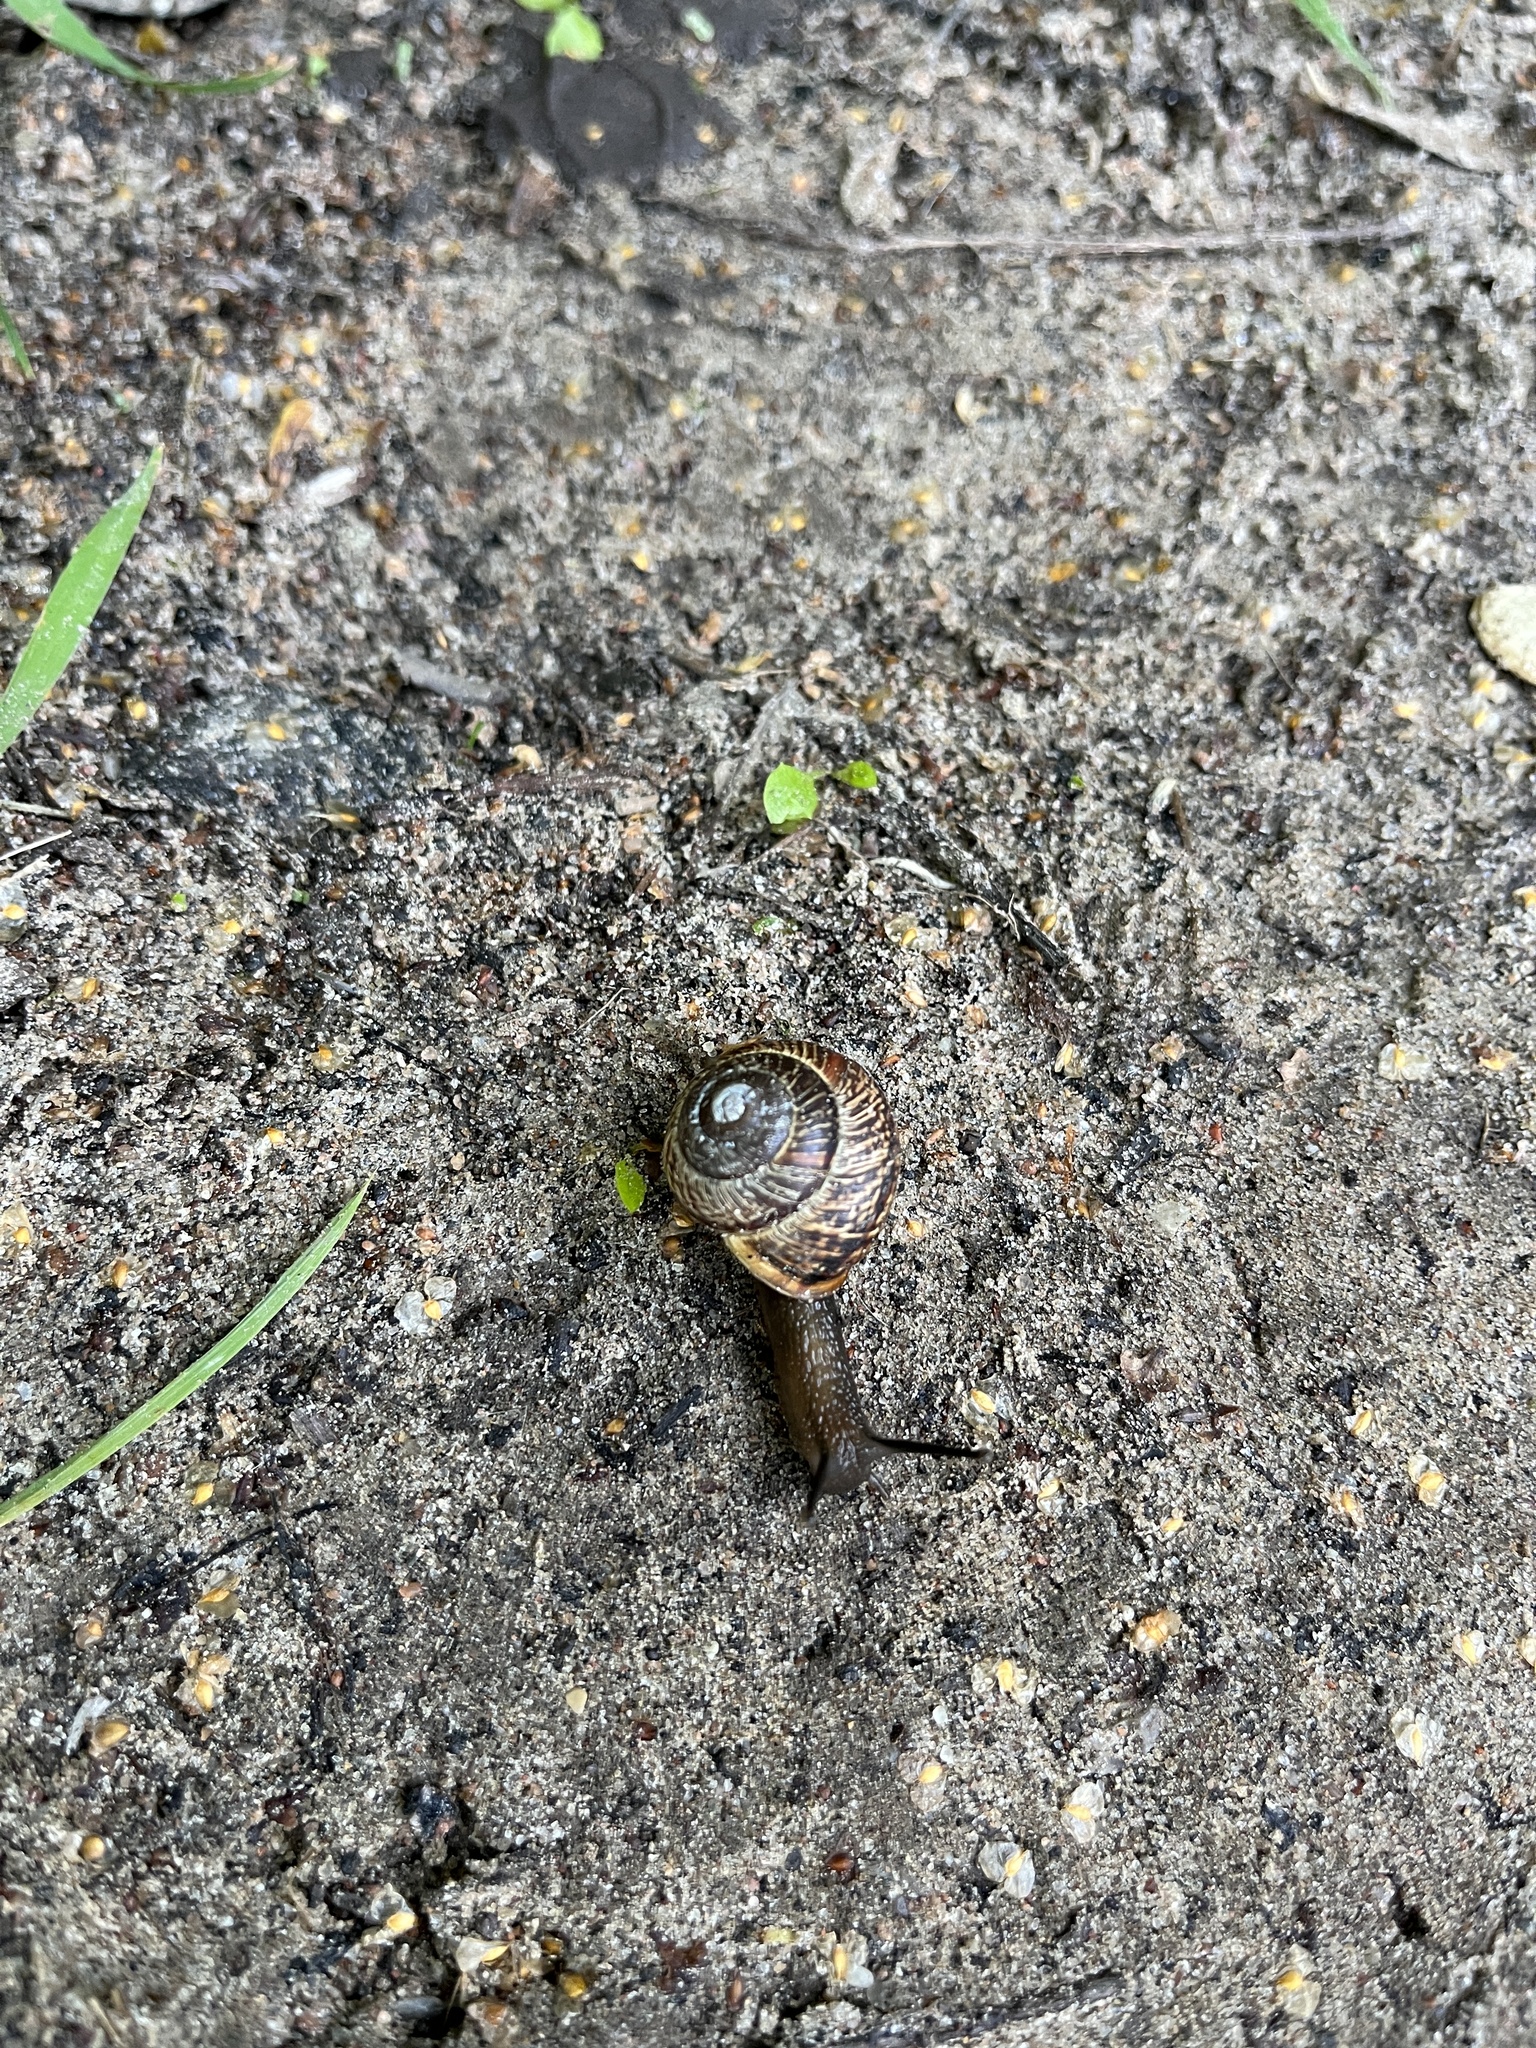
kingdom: Animalia
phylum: Mollusca
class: Gastropoda
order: Stylommatophora
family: Helicidae
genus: Arianta
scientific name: Arianta arbustorum
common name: Copse snail
